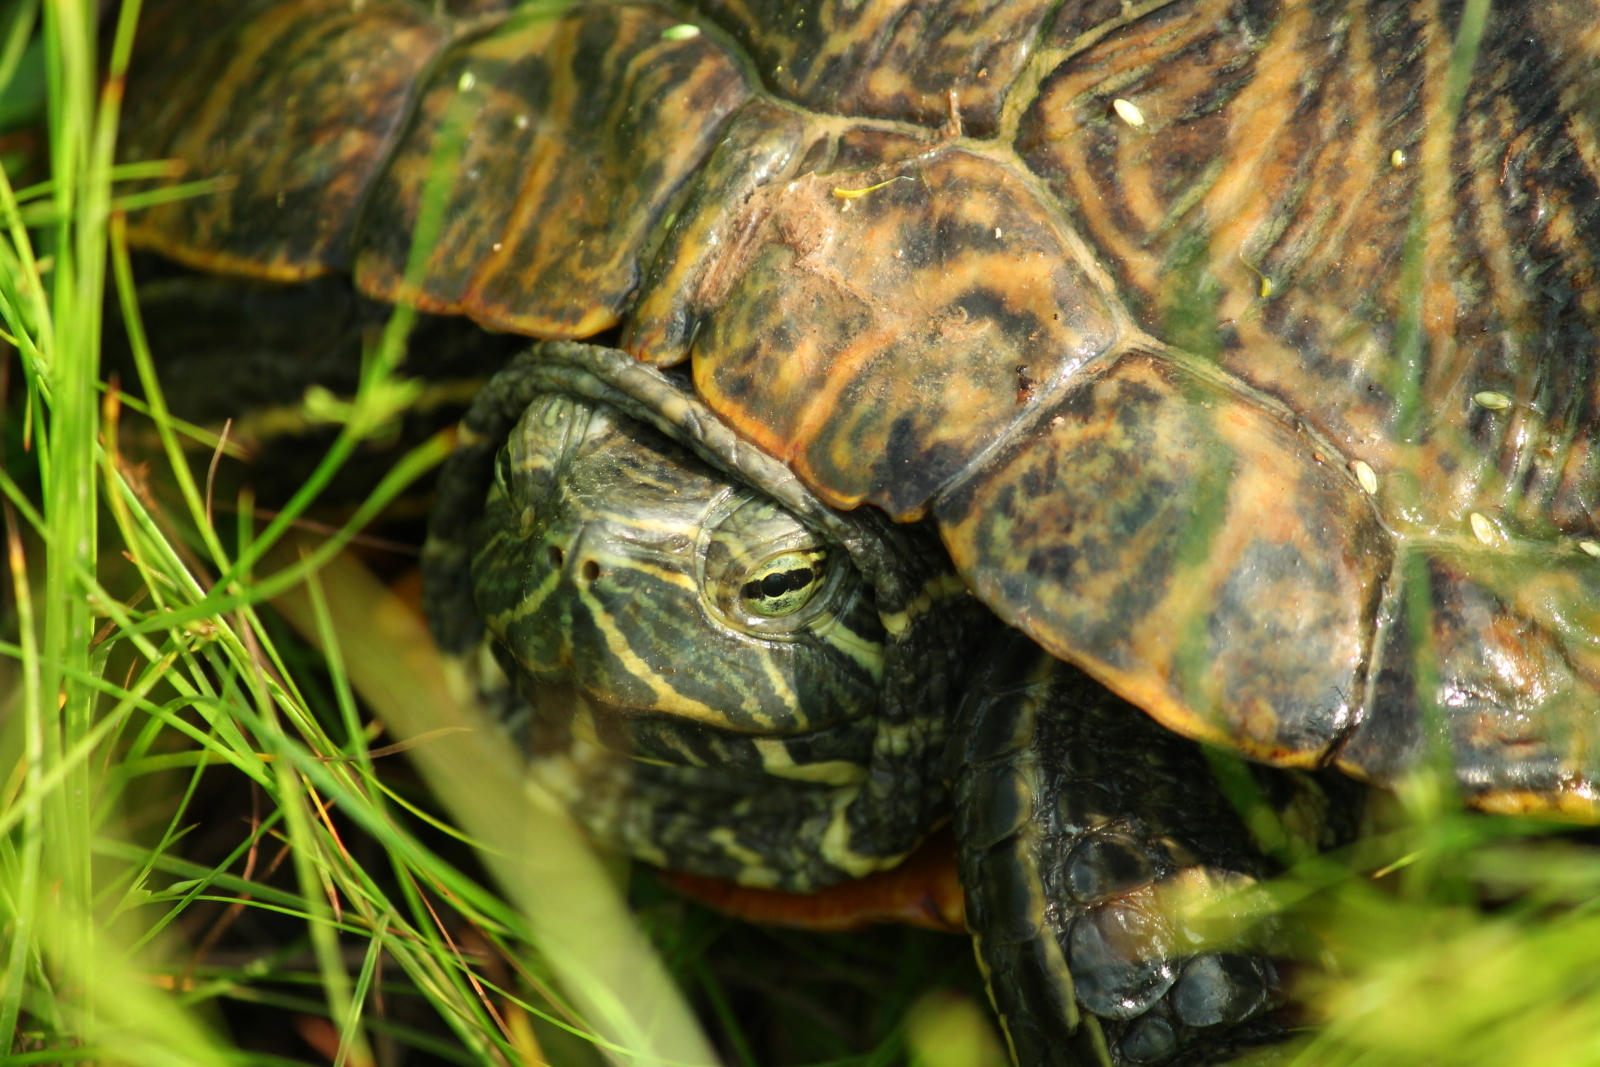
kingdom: Animalia
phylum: Chordata
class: Testudines
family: Emydidae
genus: Trachemys
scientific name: Trachemys scripta
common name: Slider
